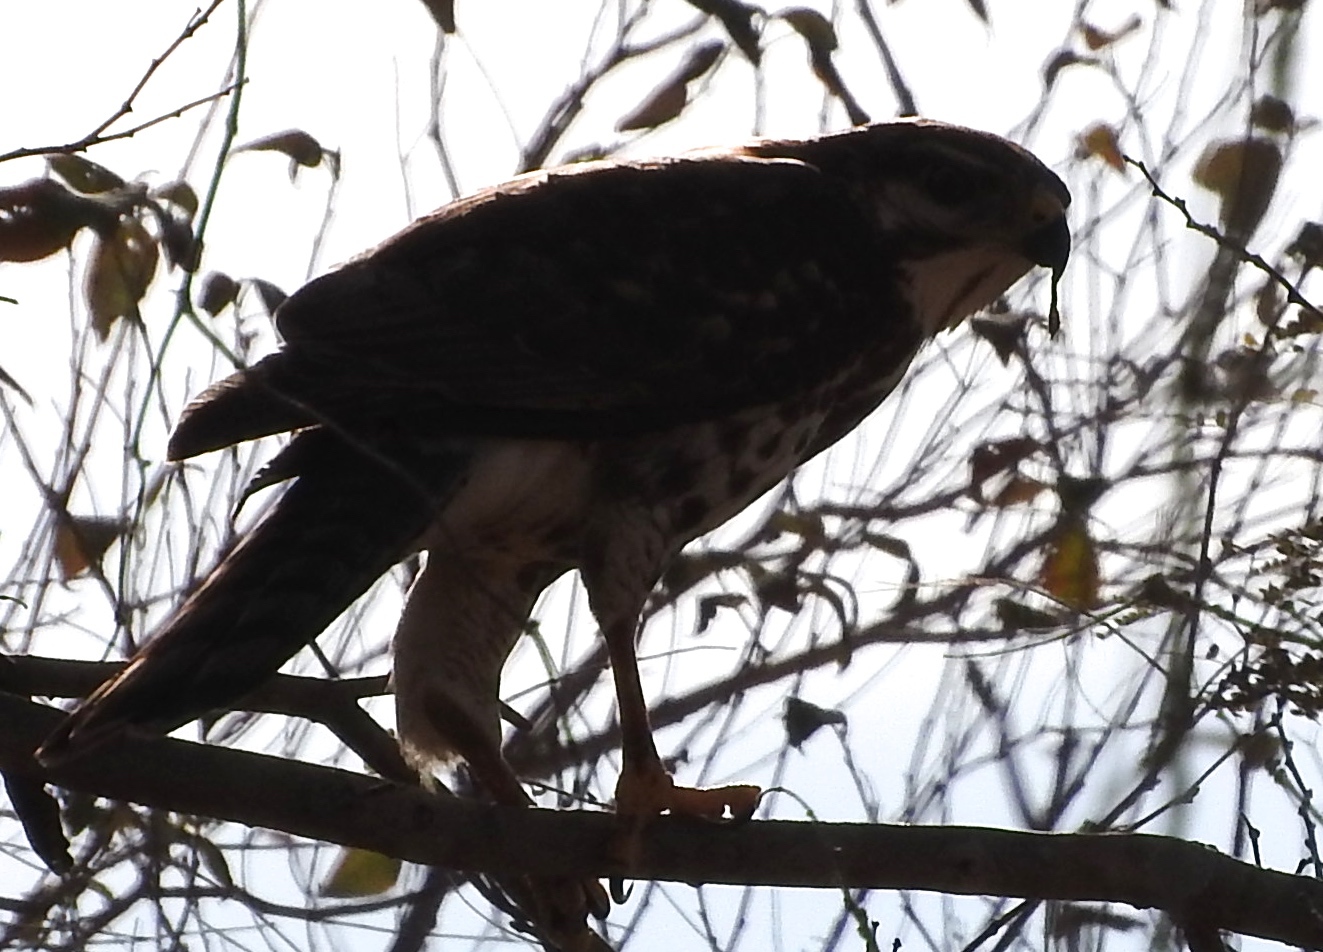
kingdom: Animalia
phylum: Chordata
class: Aves
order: Accipitriformes
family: Accipitridae
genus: Buteo
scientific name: Buteo nitidus
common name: Grey-lined hawk
